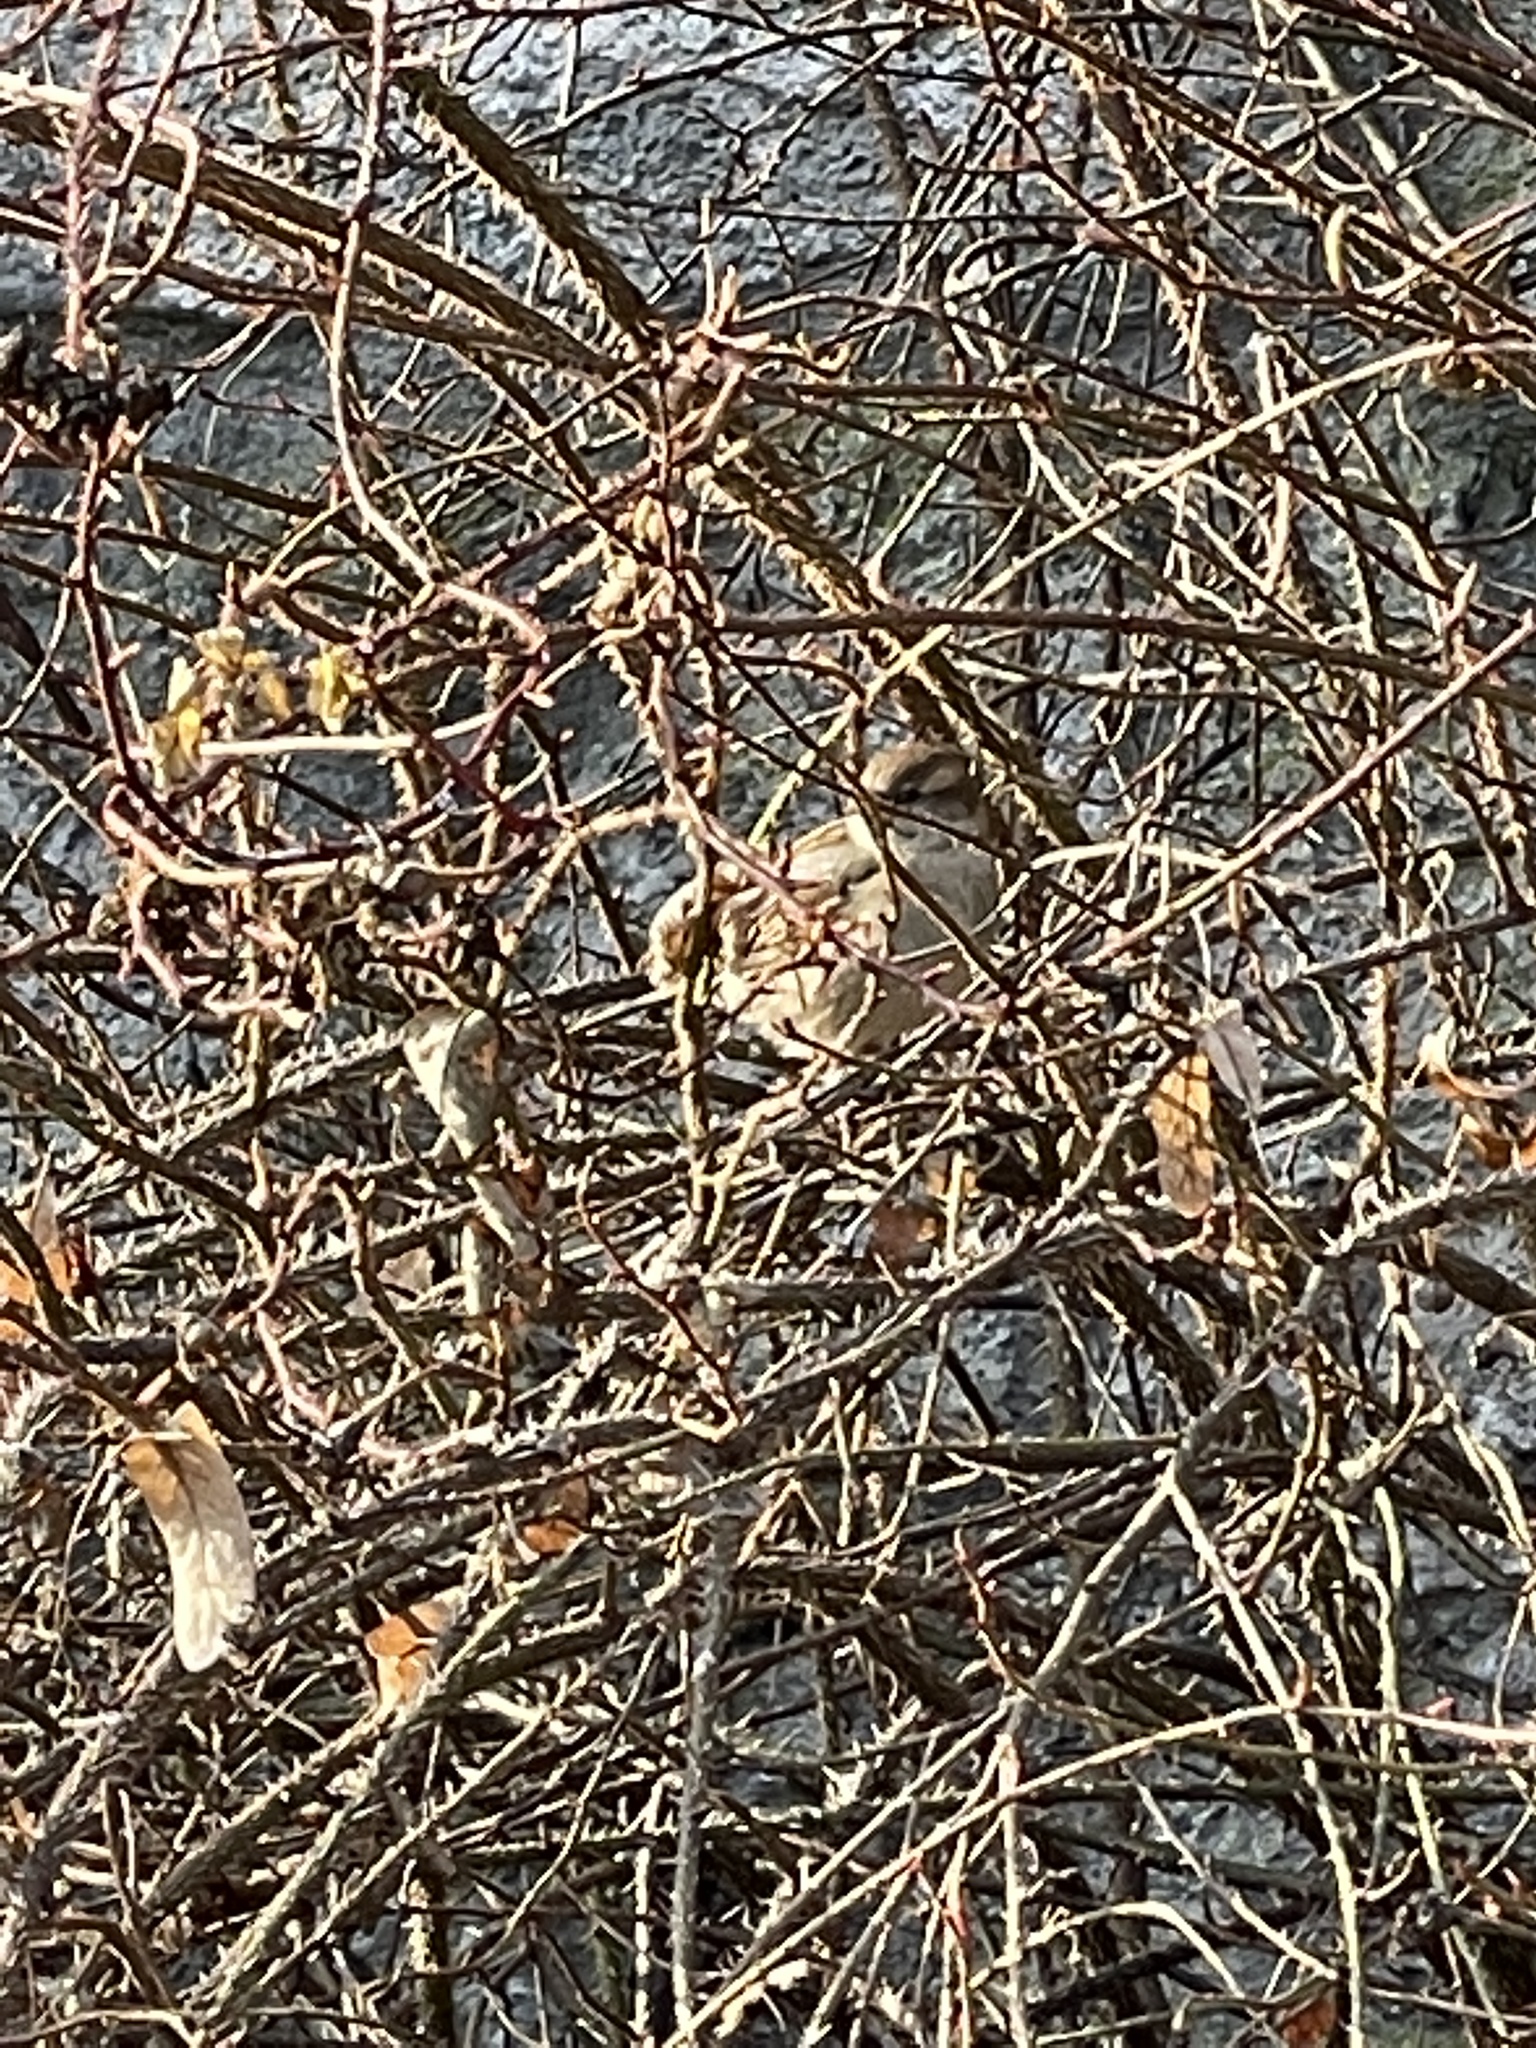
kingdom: Animalia
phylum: Chordata
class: Aves
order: Passeriformes
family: Passeridae
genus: Passer
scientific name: Passer domesticus
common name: House sparrow
